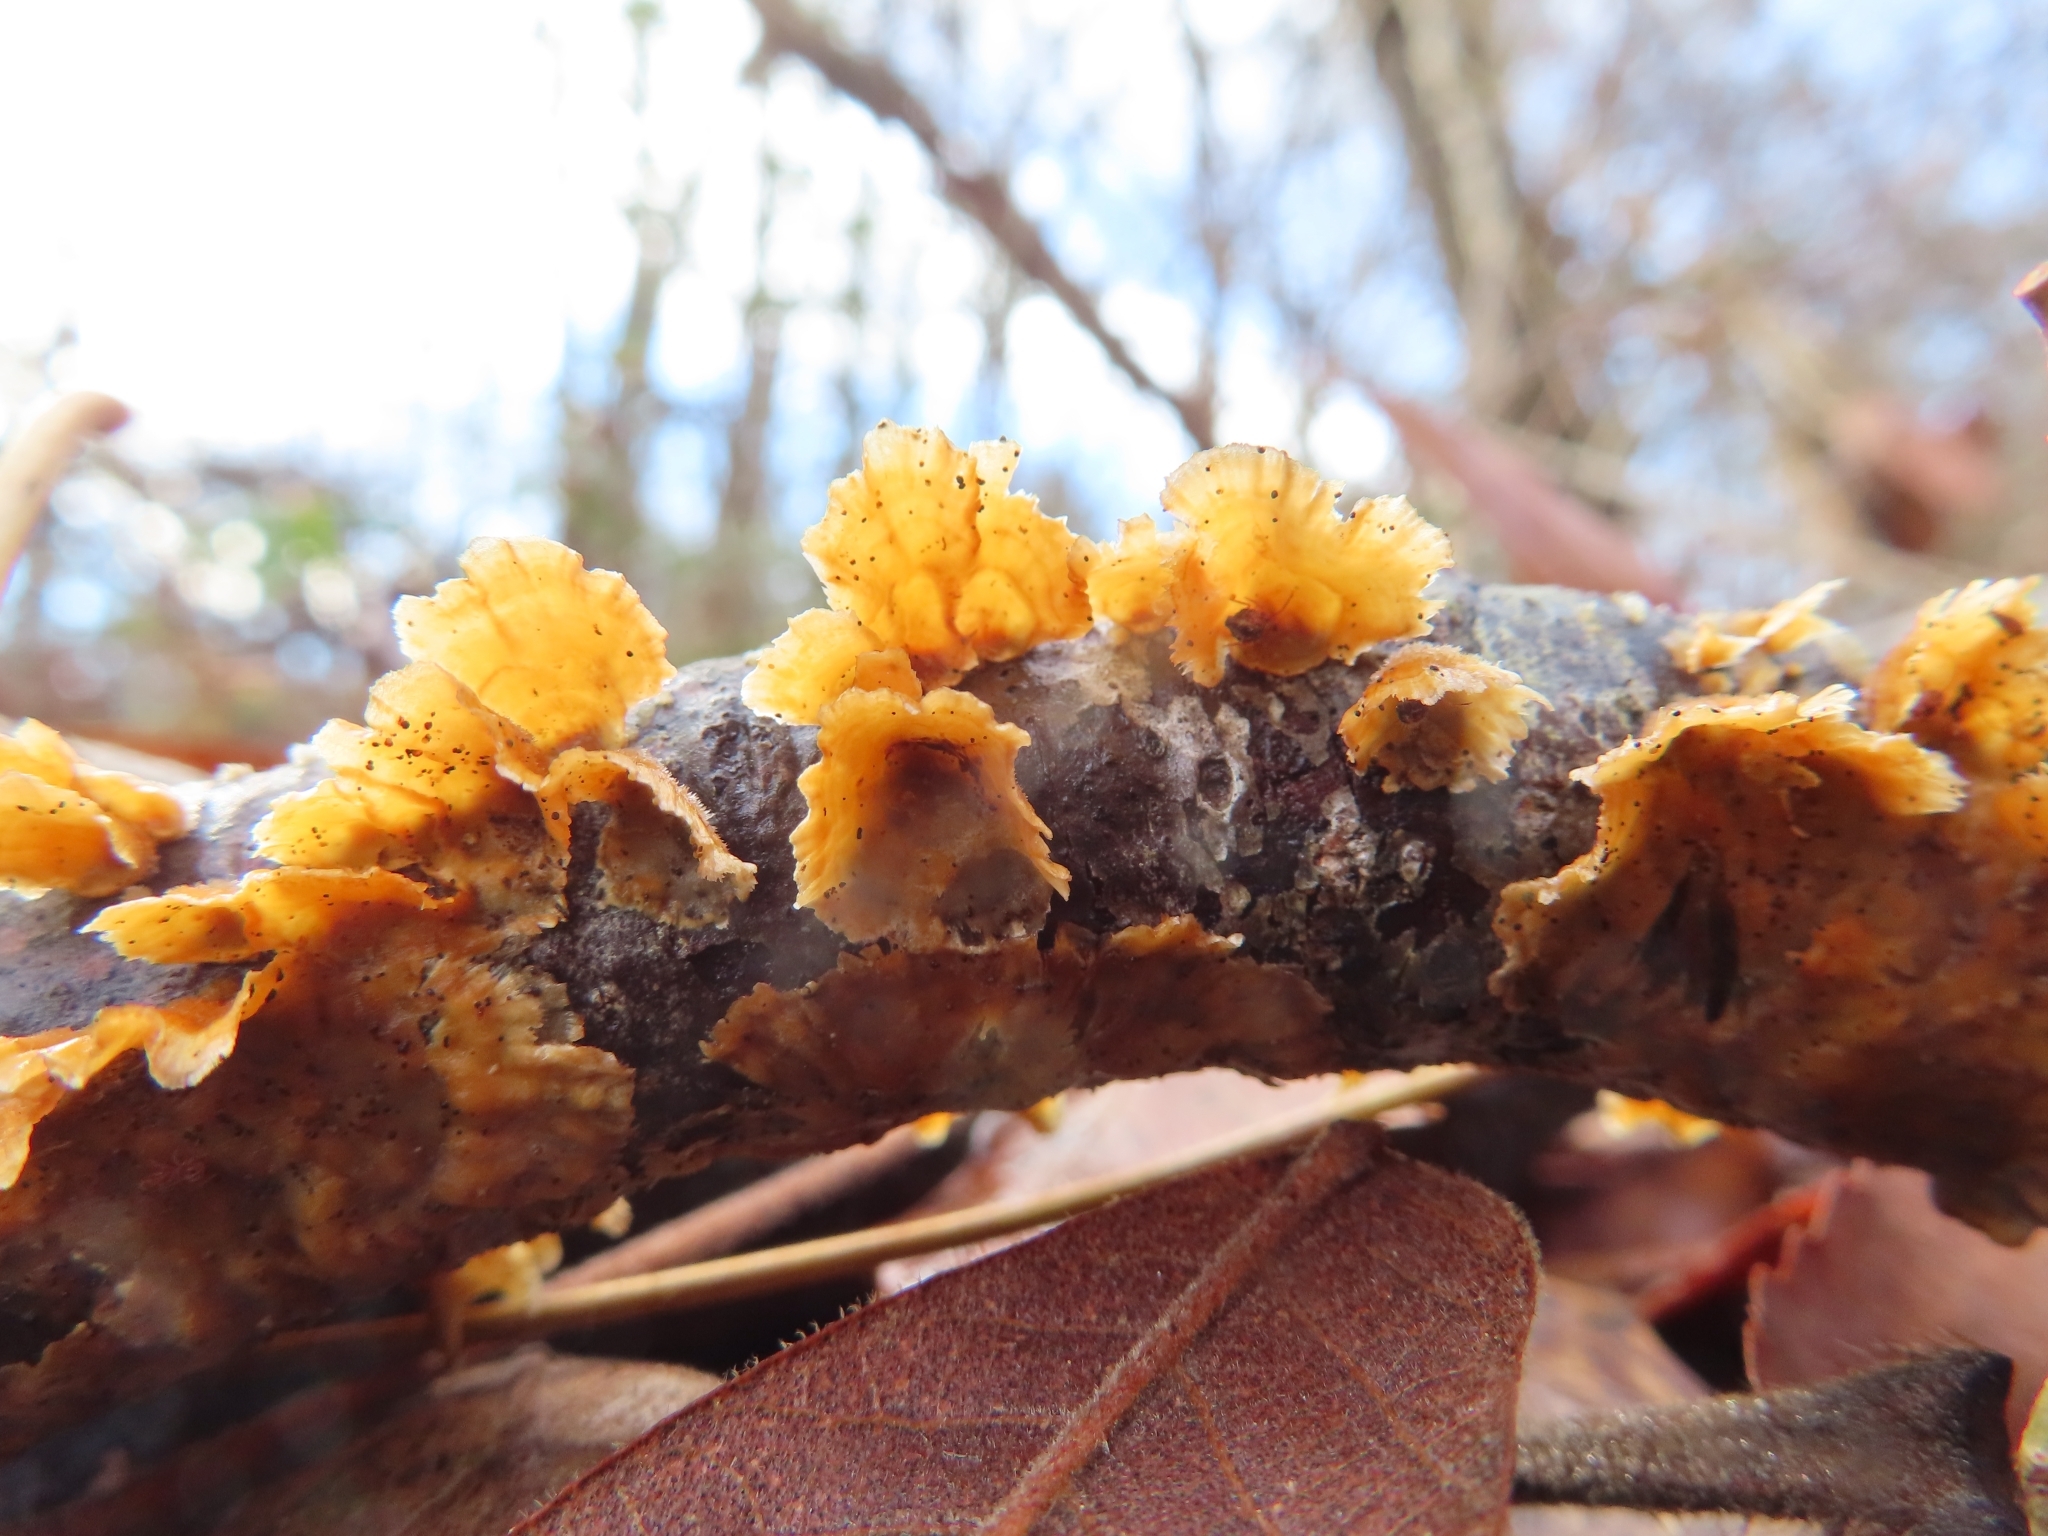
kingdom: Fungi
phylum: Basidiomycota
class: Agaricomycetes
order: Russulales
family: Stereaceae
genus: Stereum
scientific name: Stereum complicatum
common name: Crowded parchment
